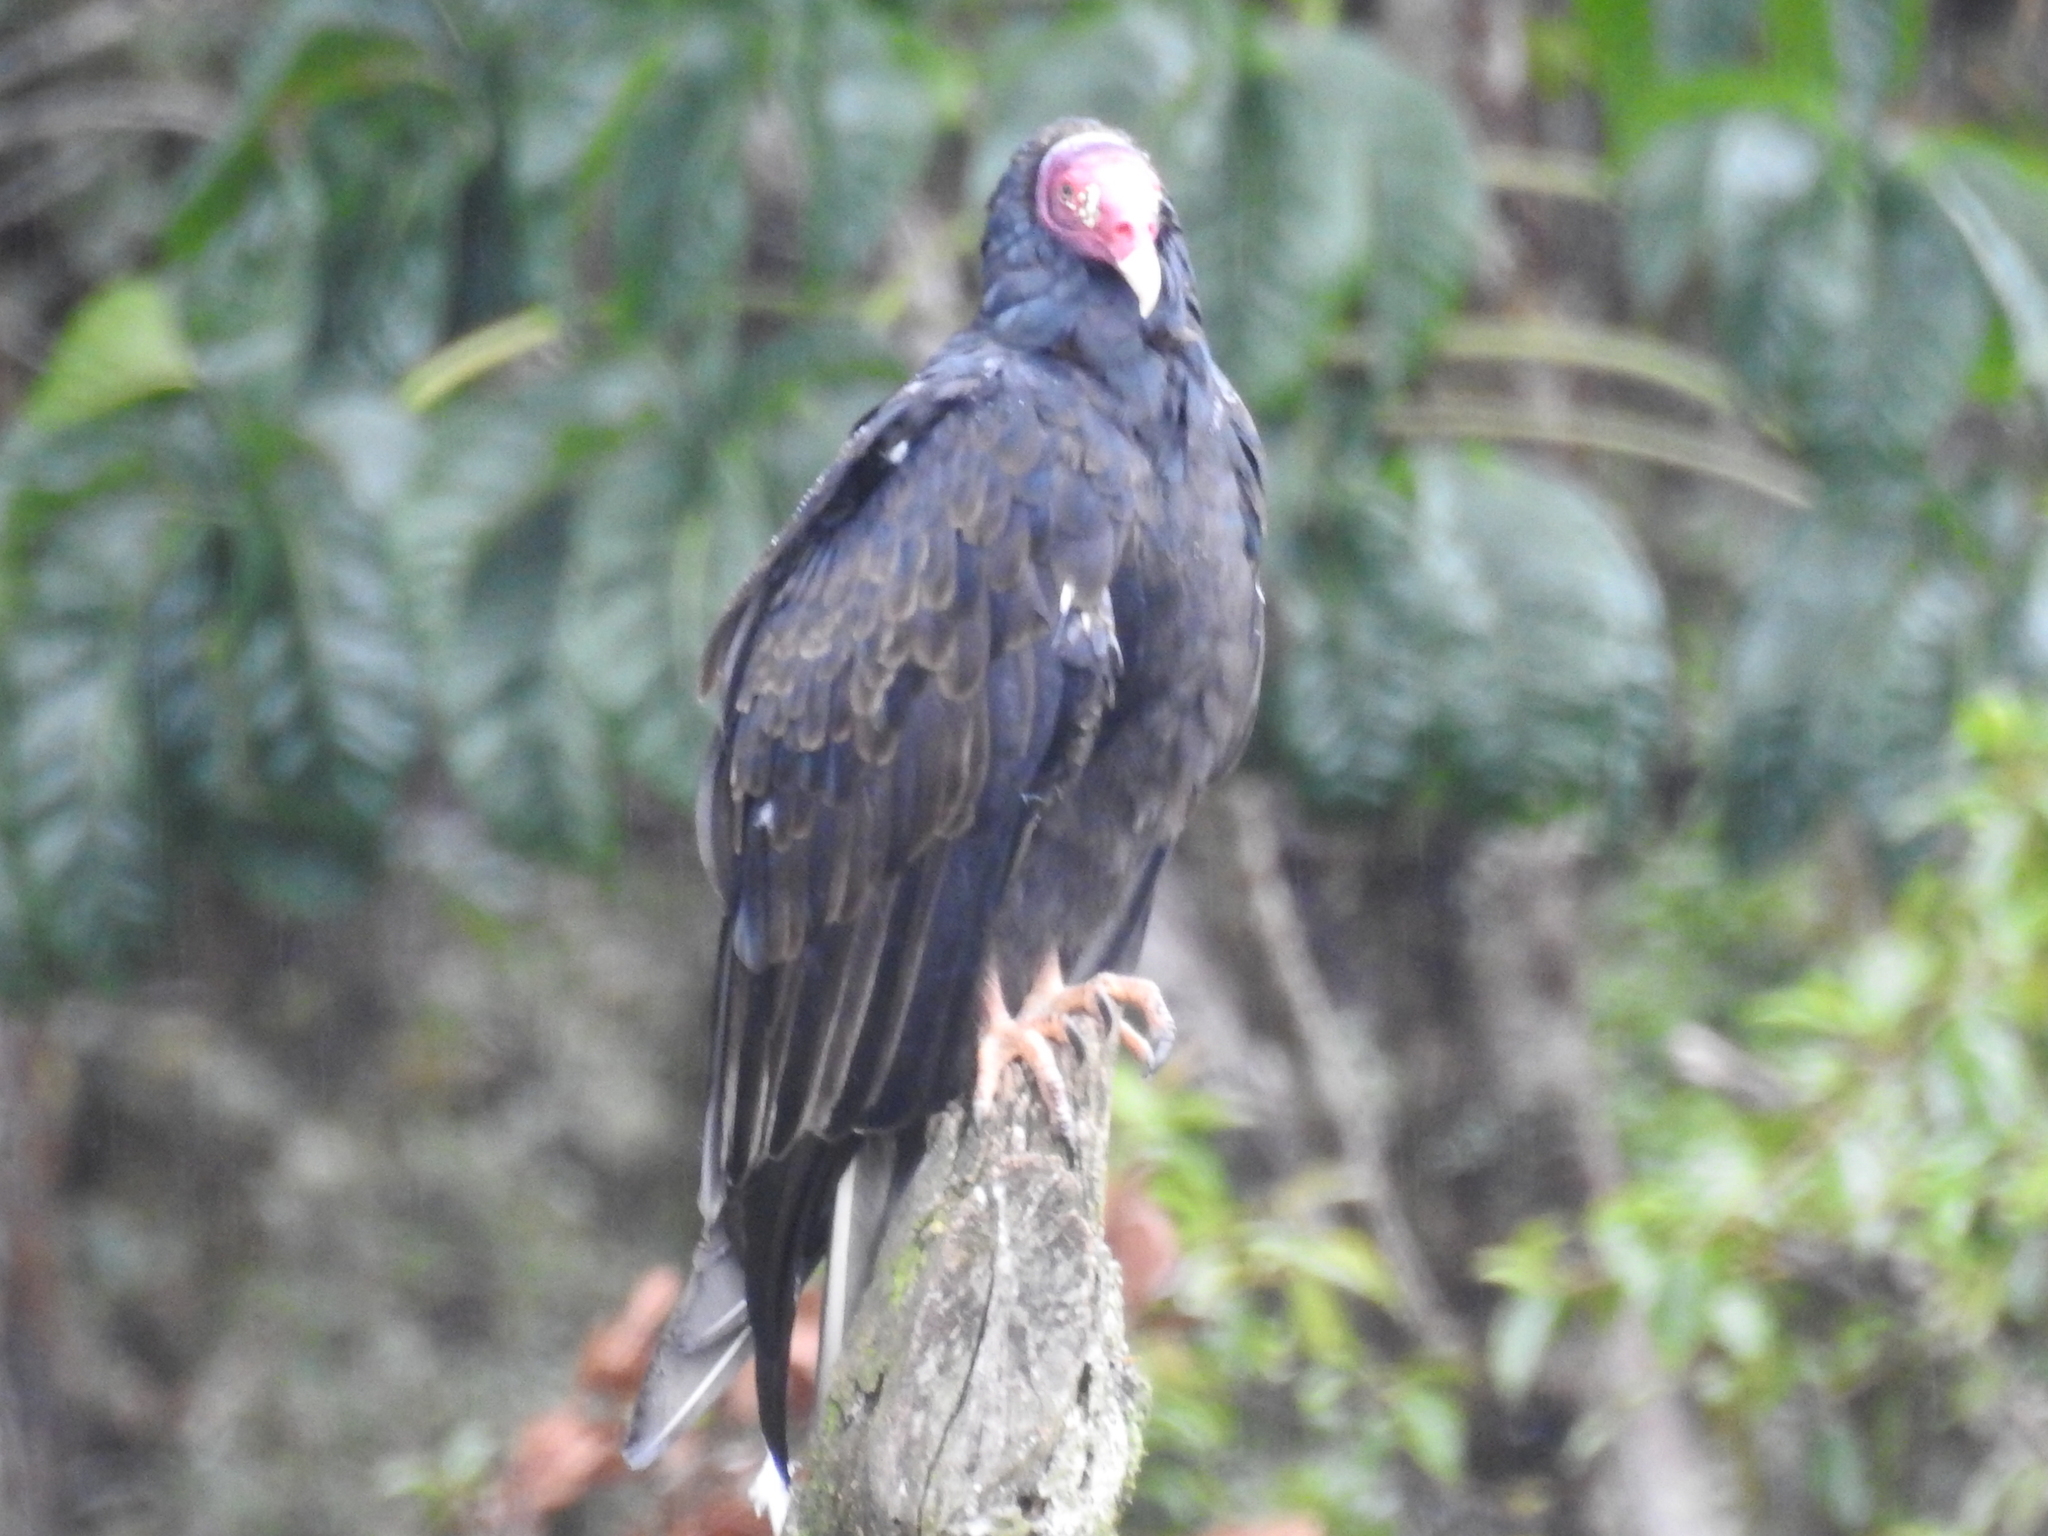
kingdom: Animalia
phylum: Chordata
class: Aves
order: Accipitriformes
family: Cathartidae
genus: Cathartes
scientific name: Cathartes aura
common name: Turkey vulture
